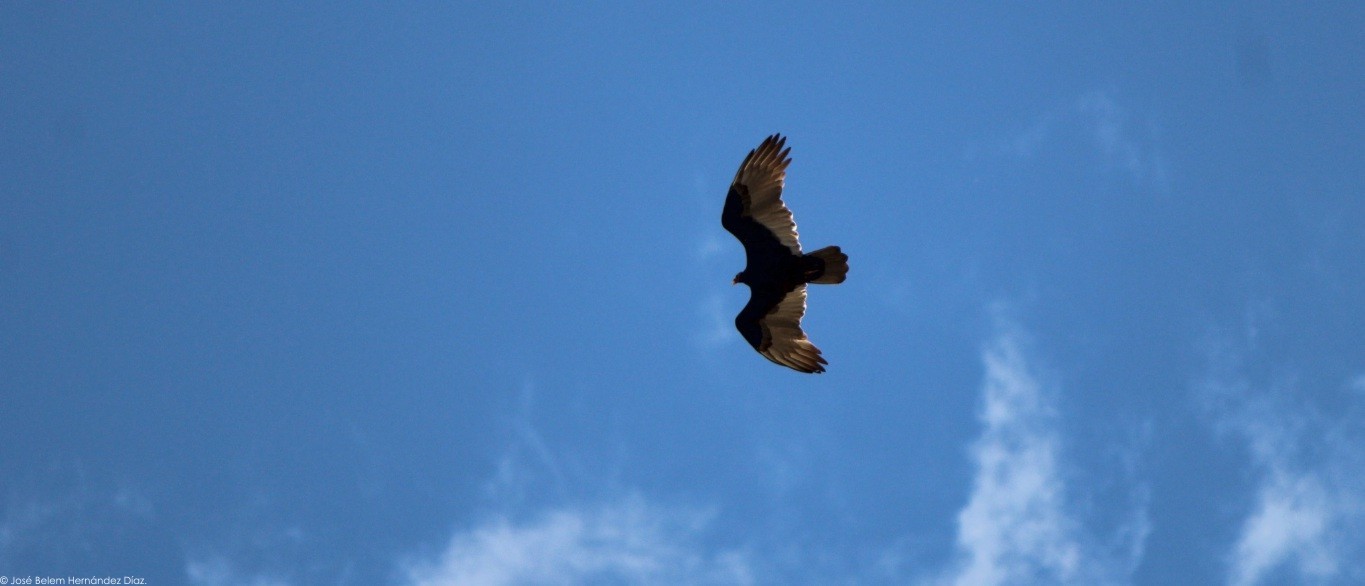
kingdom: Animalia
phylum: Chordata
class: Aves
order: Accipitriformes
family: Cathartidae
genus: Cathartes
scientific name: Cathartes aura
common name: Turkey vulture
